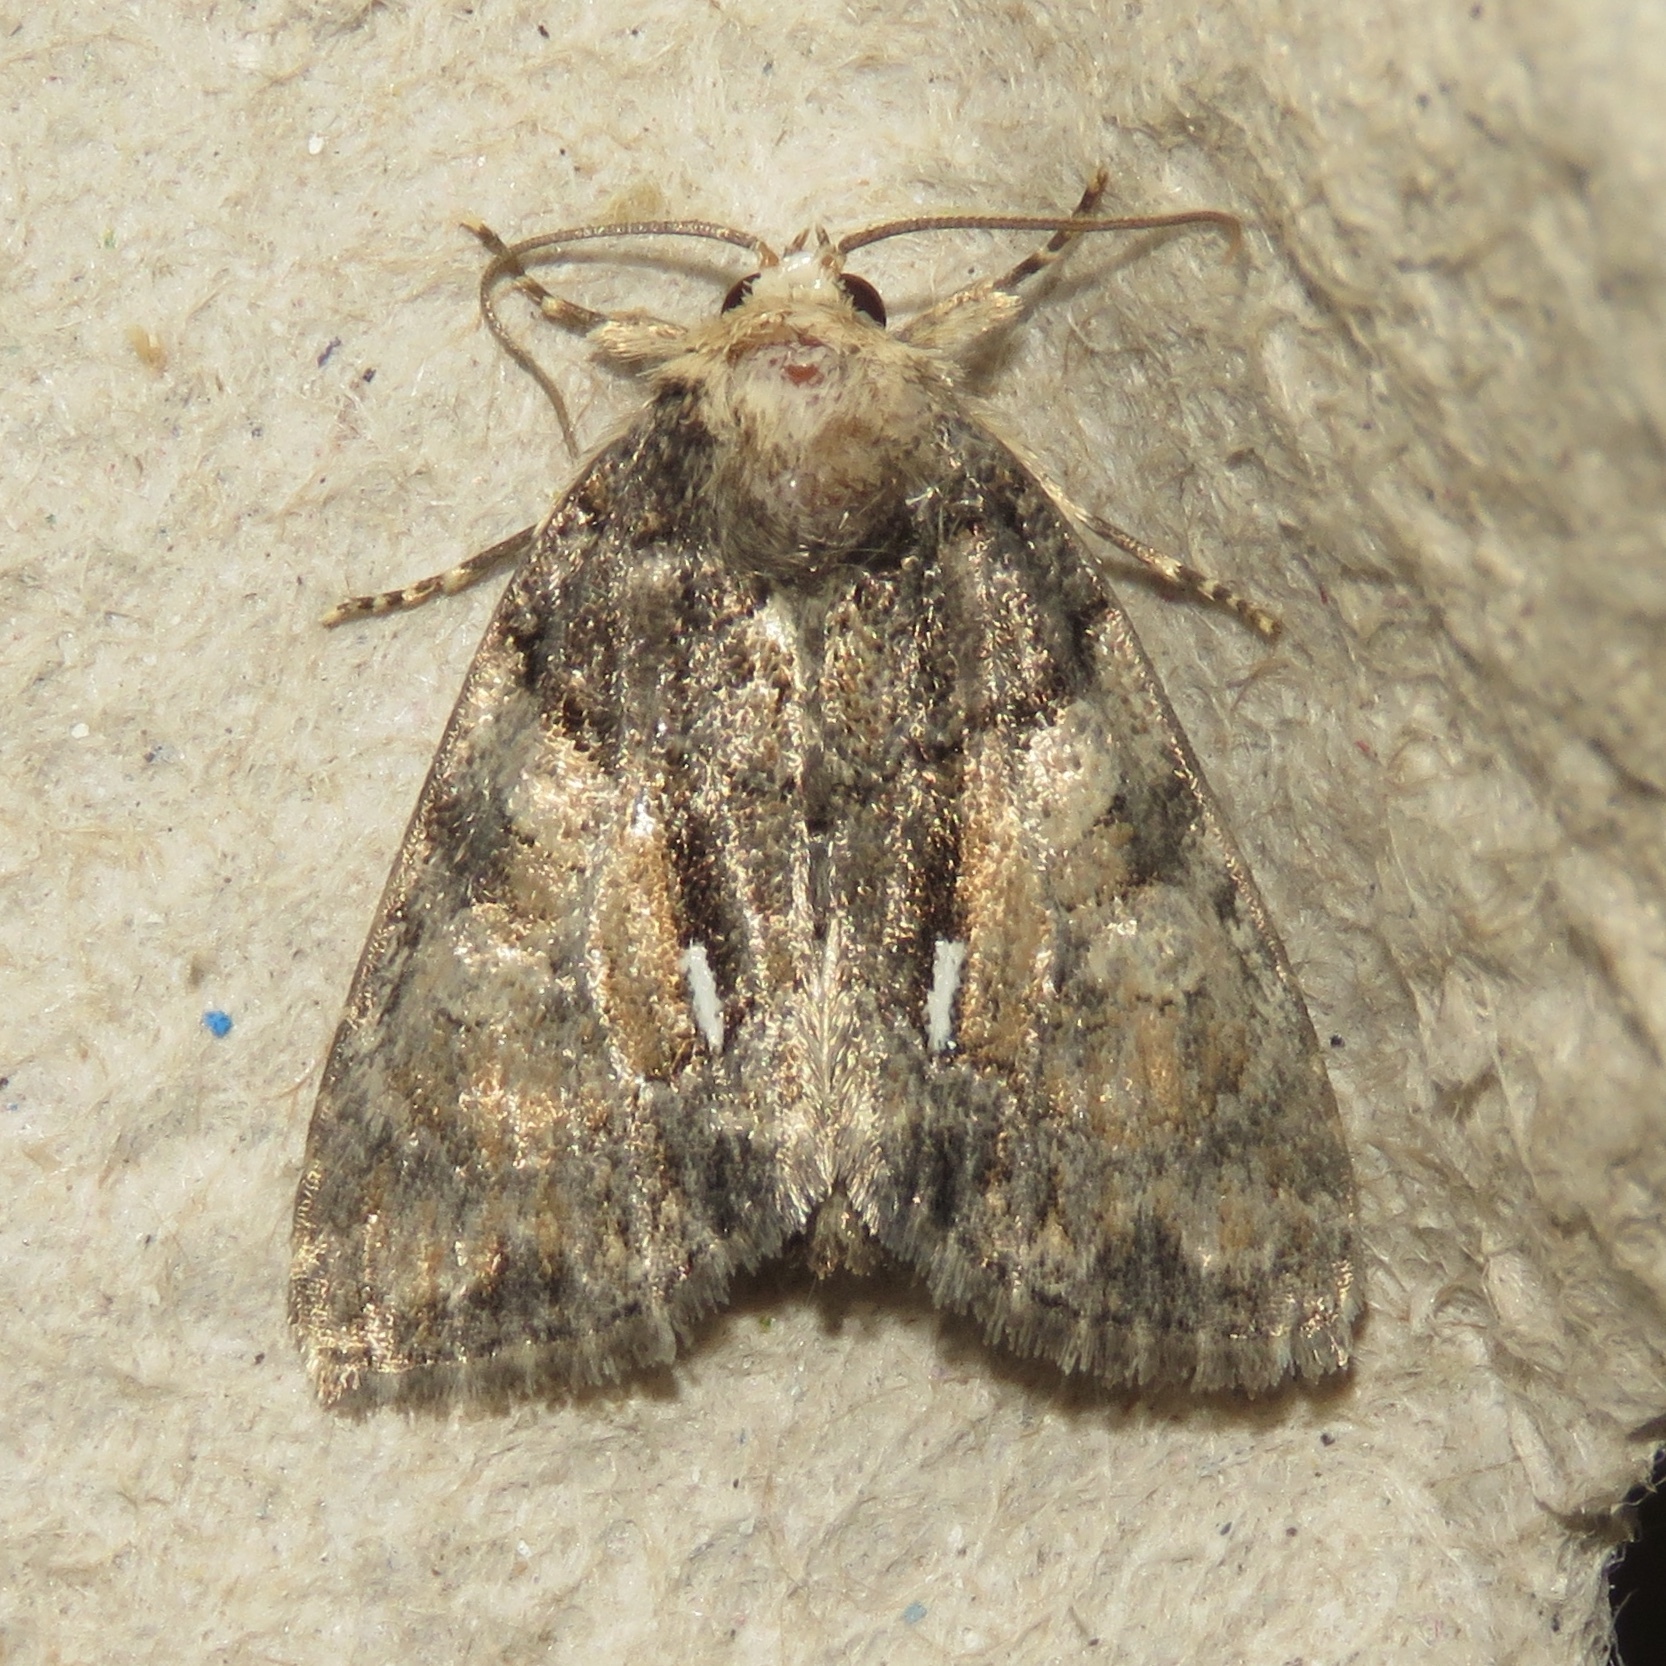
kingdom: Animalia
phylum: Arthropoda
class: Insecta
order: Lepidoptera
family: Noctuidae
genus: Chytonix
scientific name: Chytonix palliatricula
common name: Cloaked marvel
